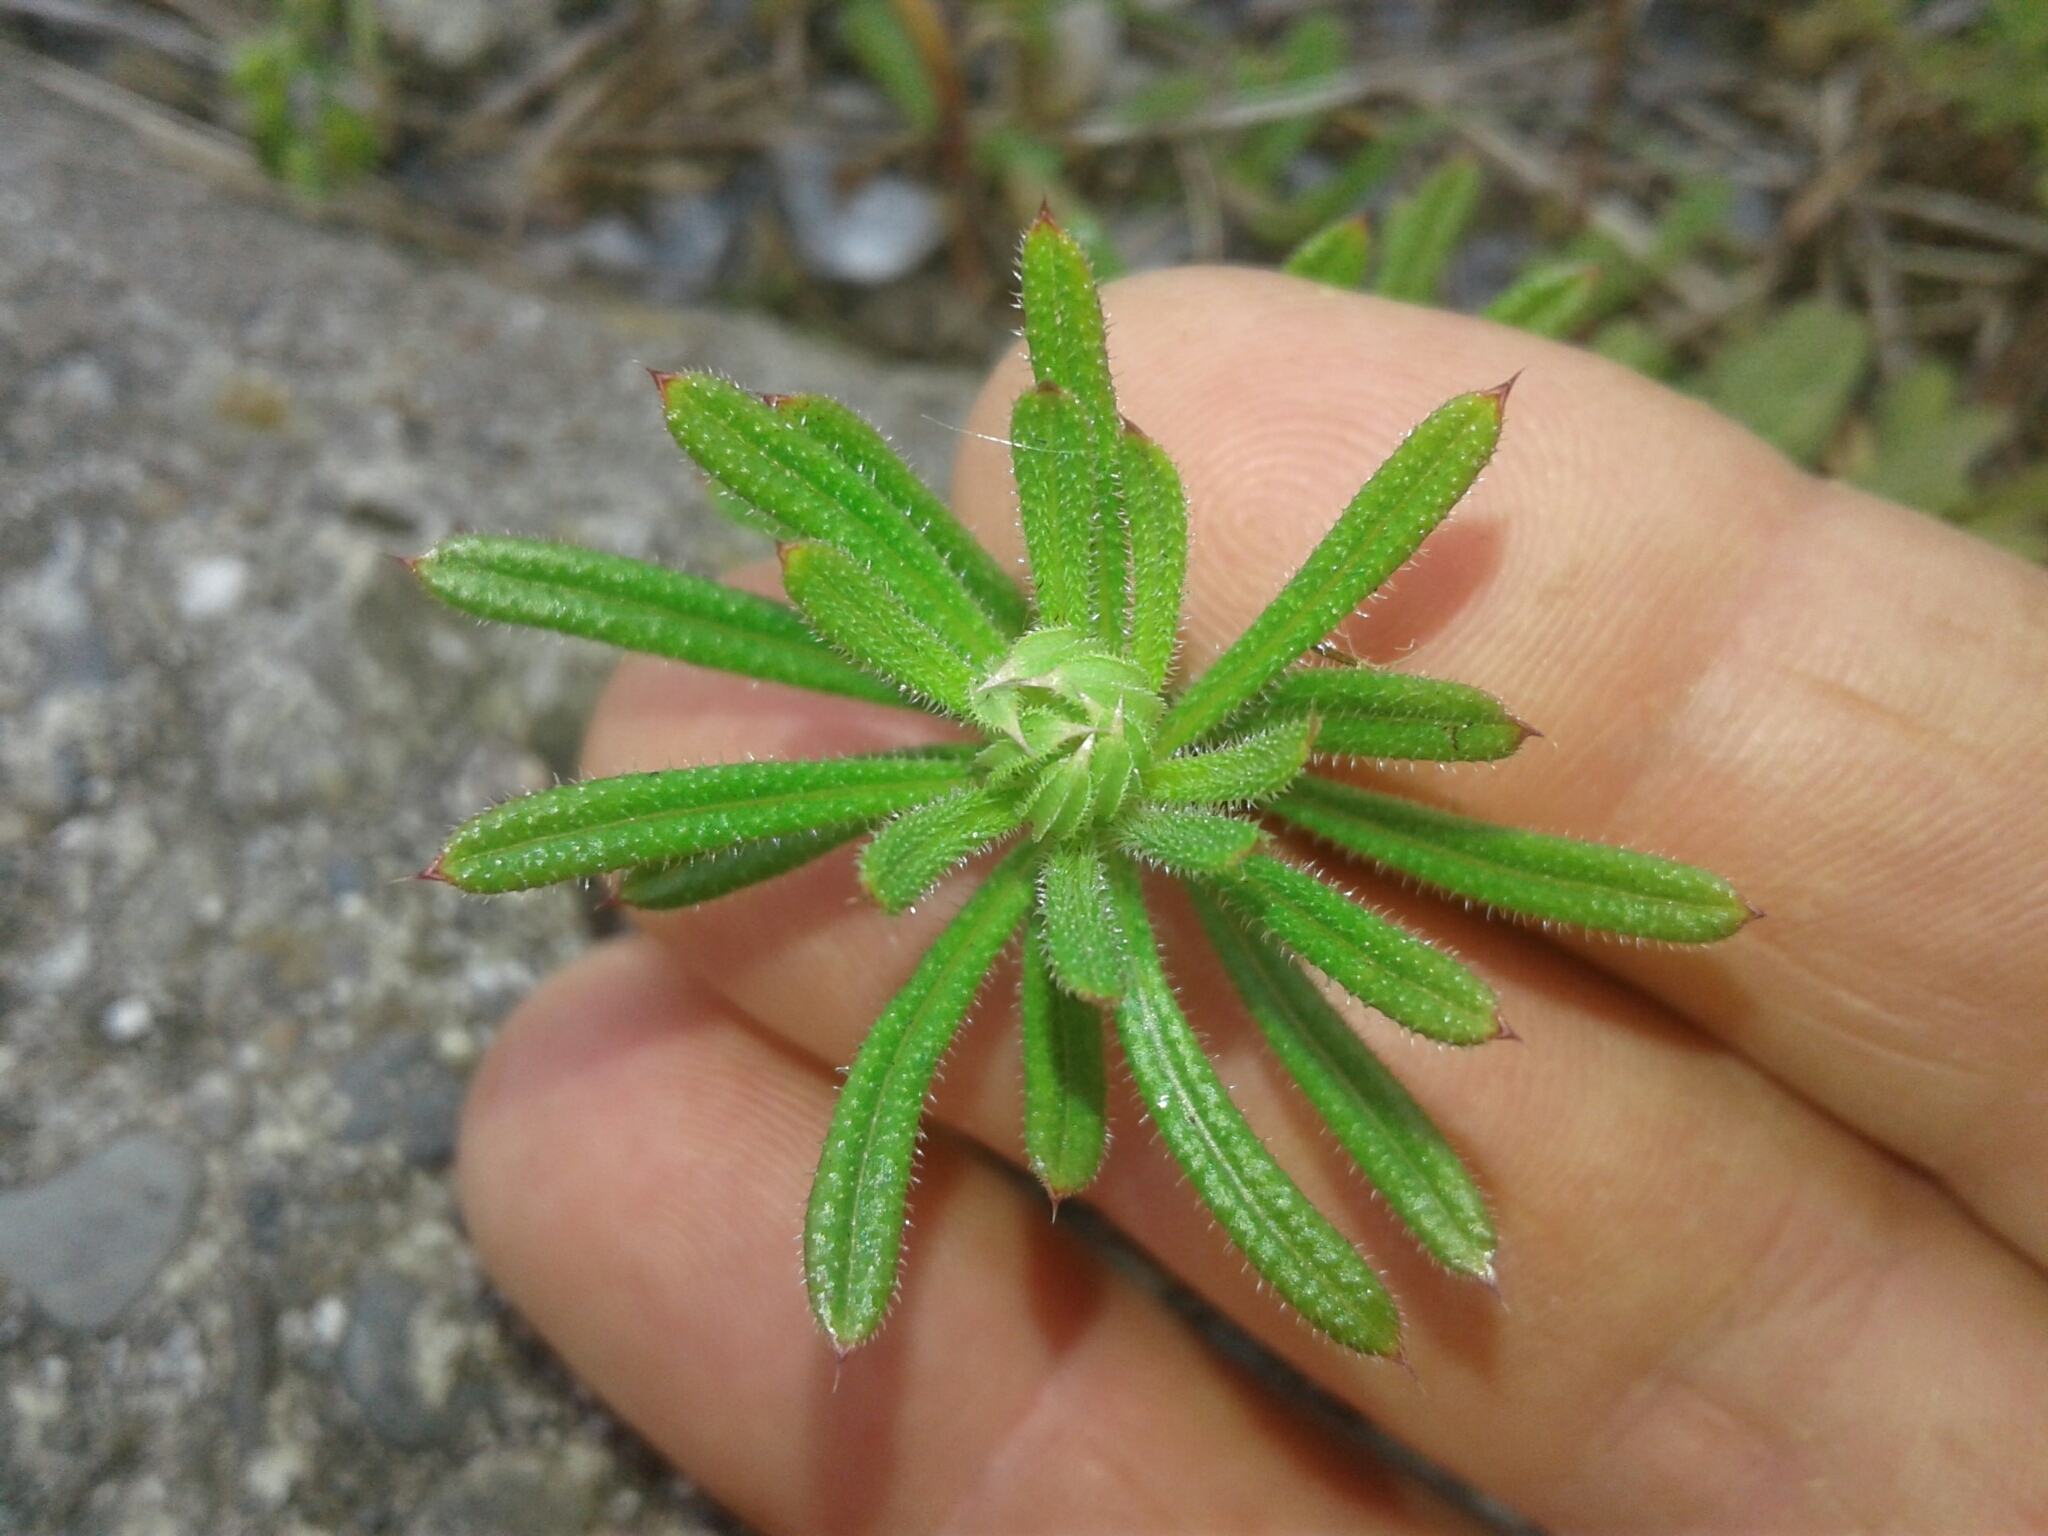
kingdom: Plantae
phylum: Tracheophyta
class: Magnoliopsida
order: Gentianales
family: Rubiaceae
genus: Galium
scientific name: Galium aparine
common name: Cleavers
